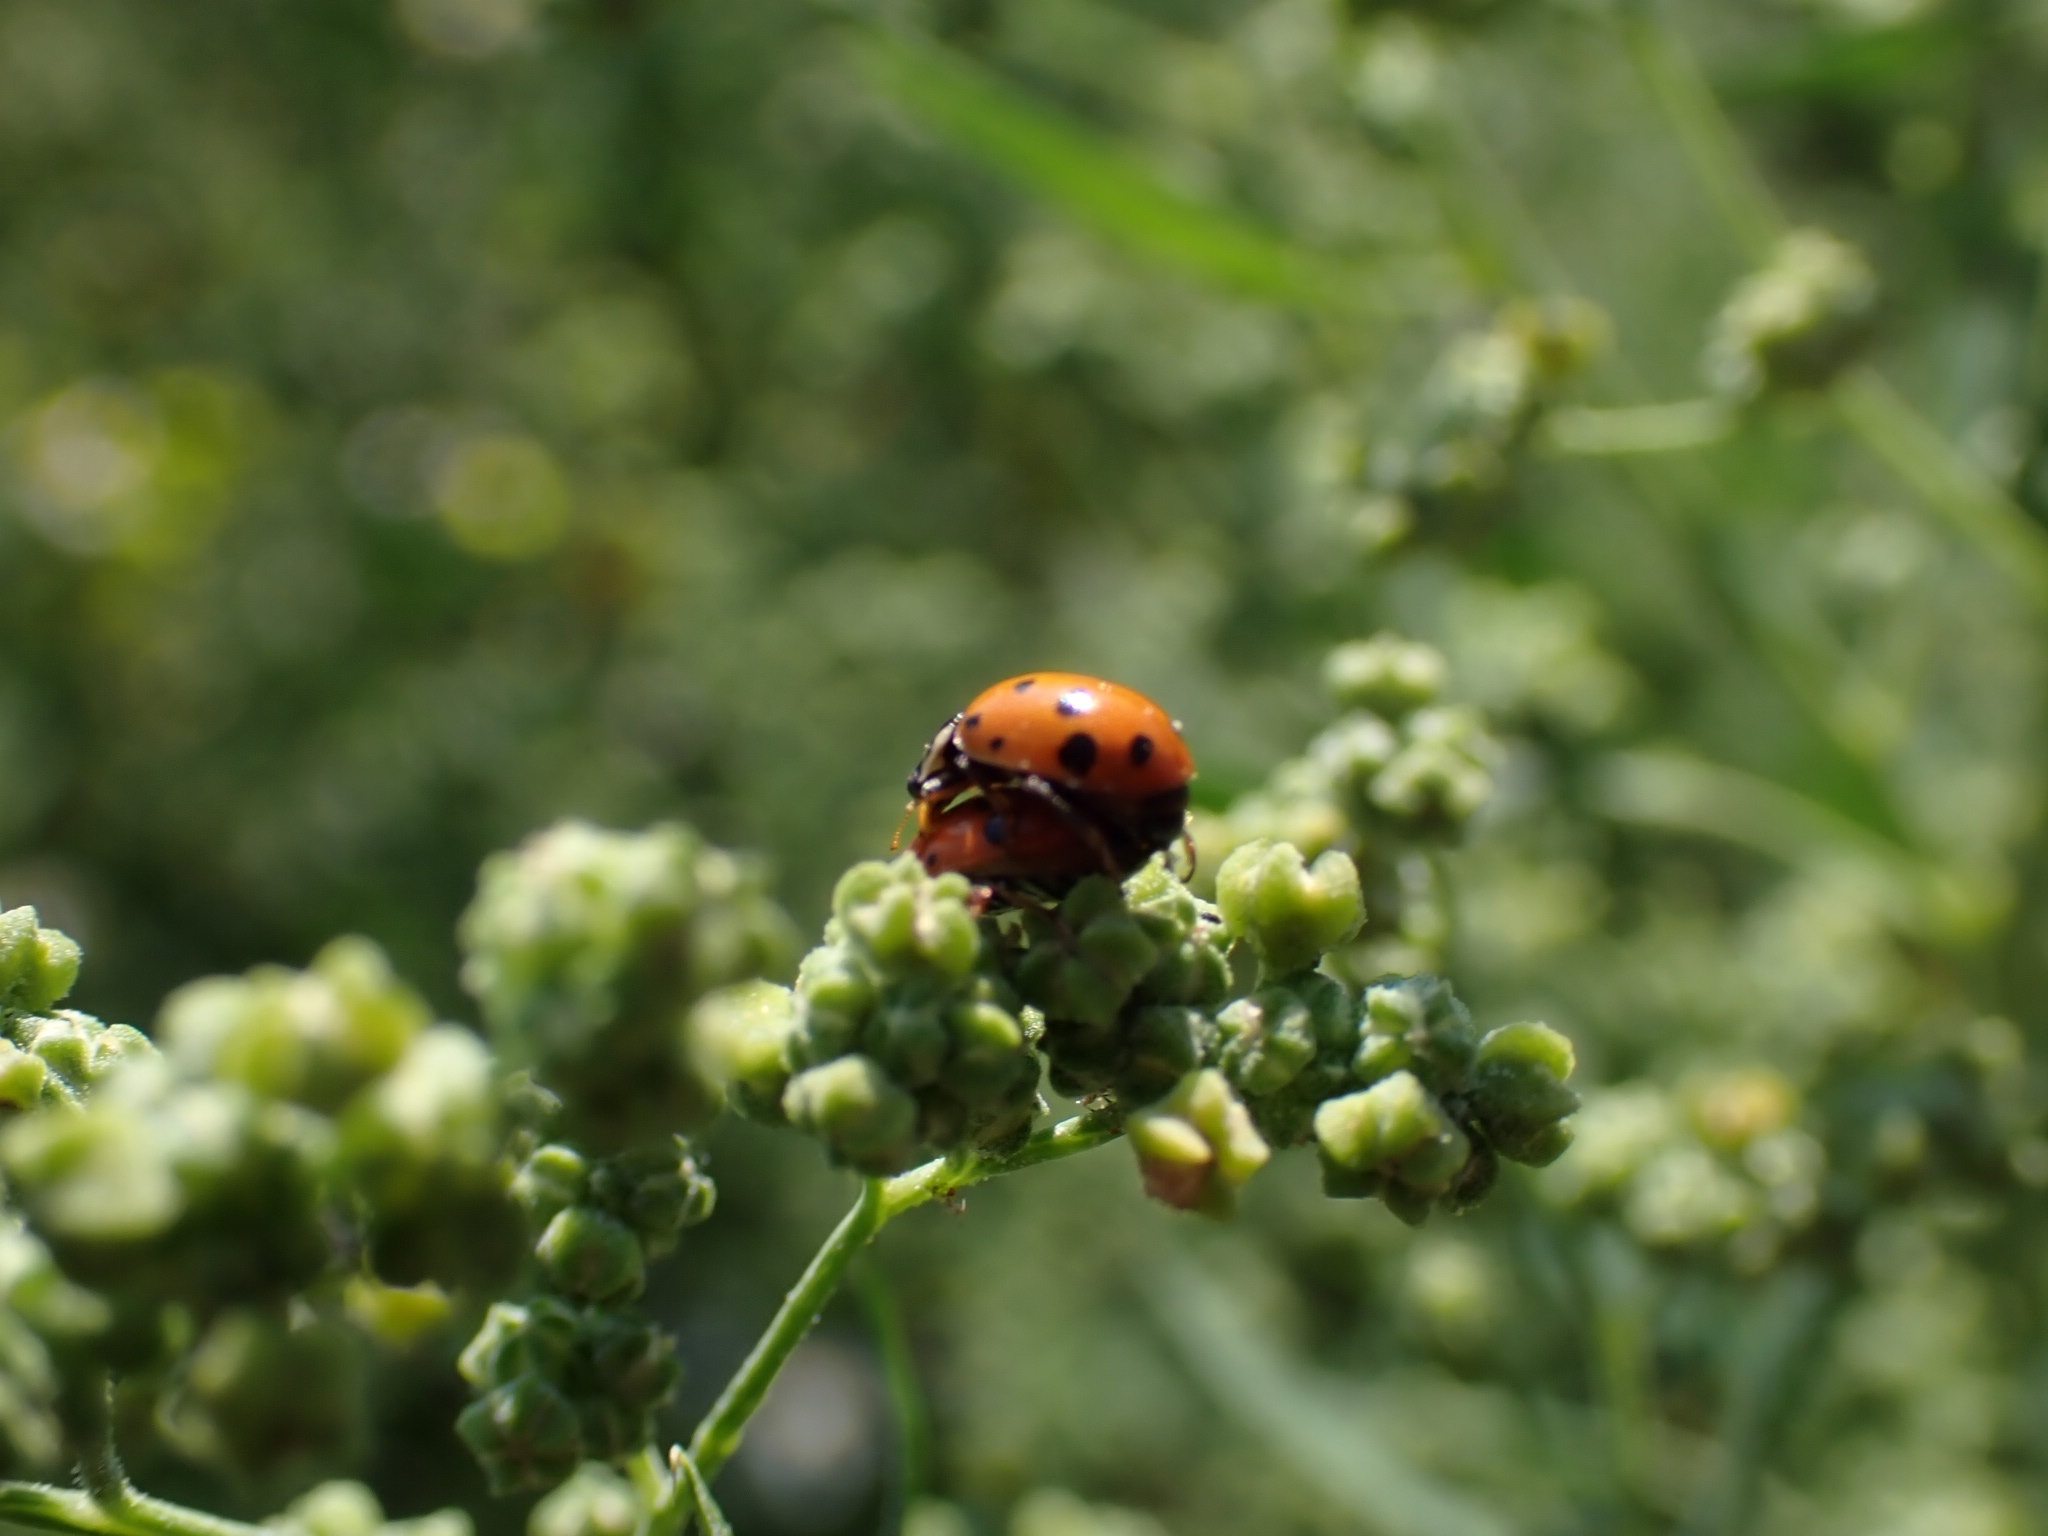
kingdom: Animalia
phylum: Arthropoda
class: Insecta
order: Coleoptera
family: Coccinellidae
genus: Hippodamia
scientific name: Hippodamia variegata
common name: Ladybird beetle
